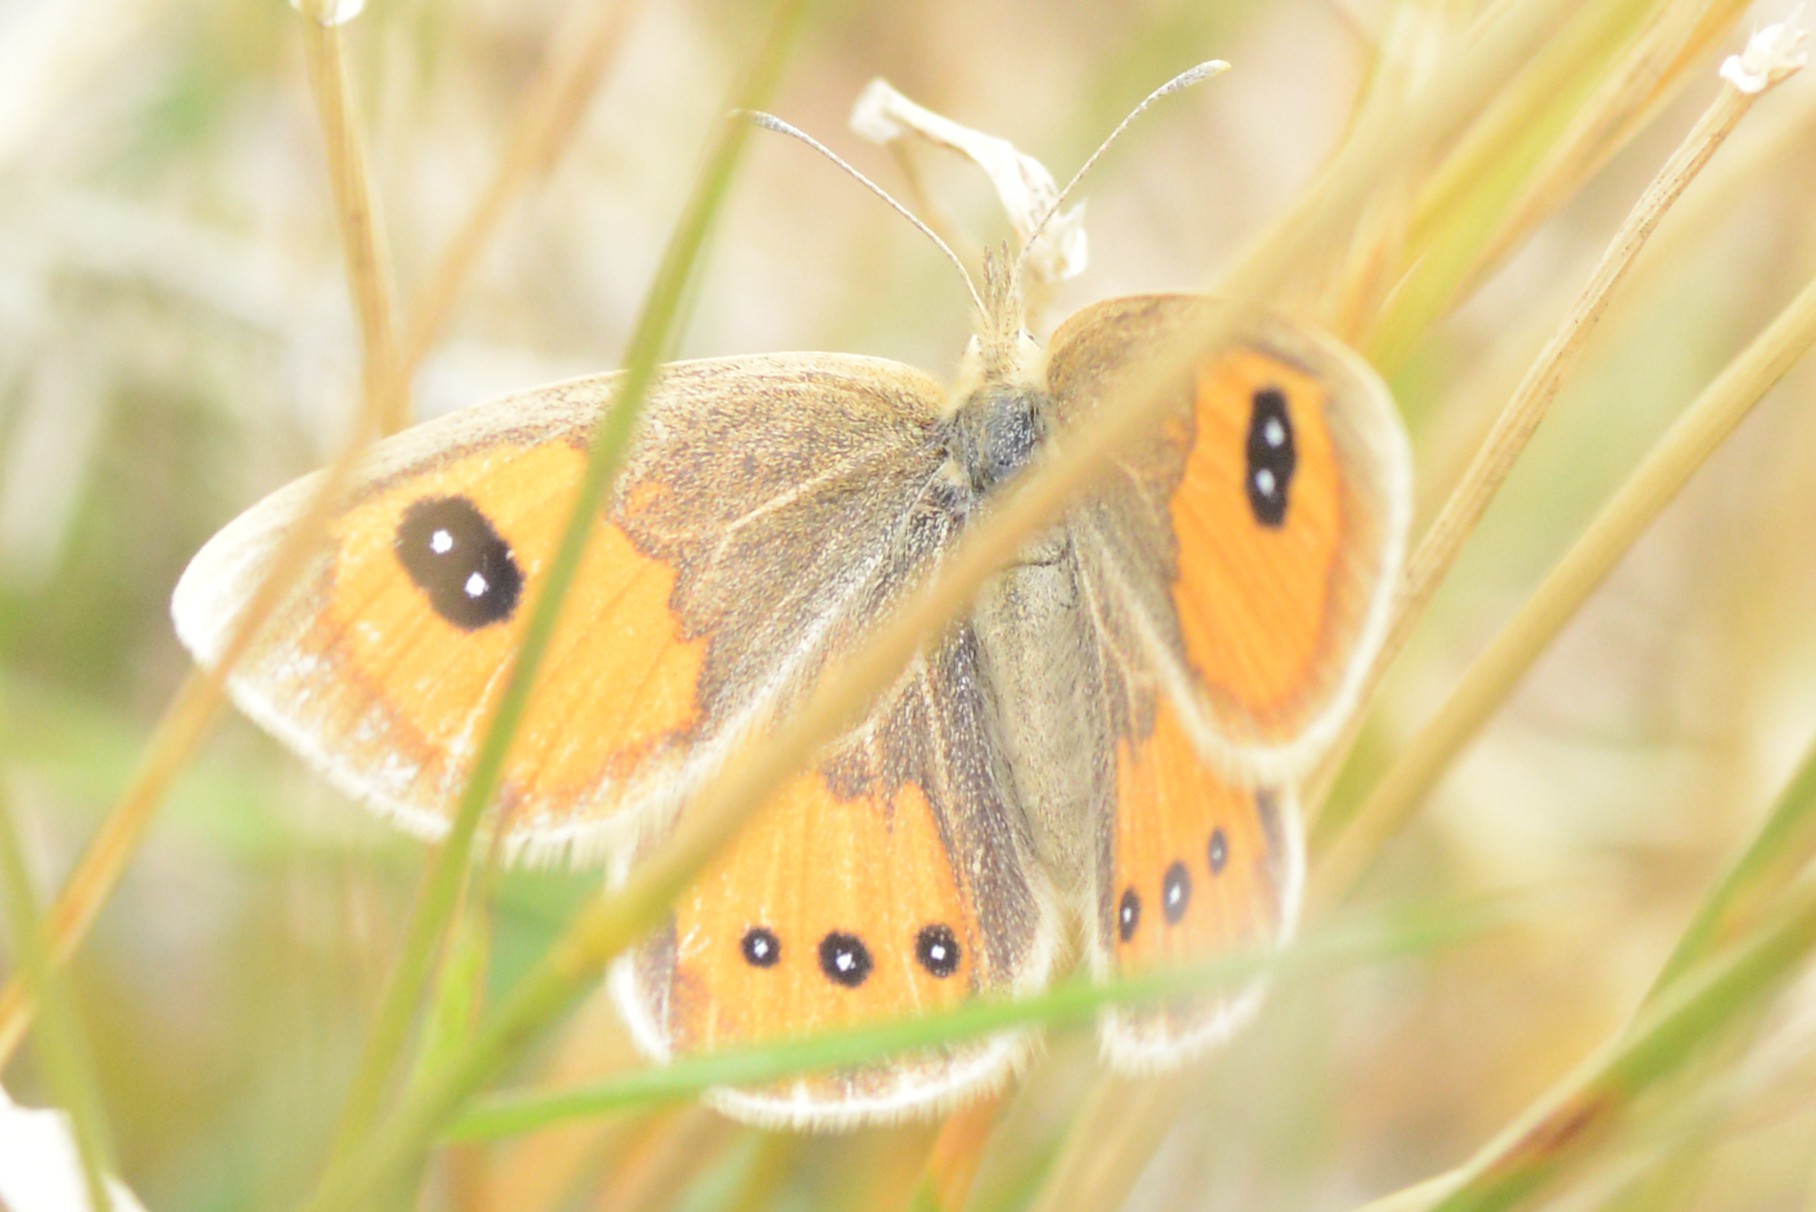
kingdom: Animalia
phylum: Arthropoda
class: Insecta
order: Lepidoptera
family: Nymphalidae
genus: Argyrophenga
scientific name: Argyrophenga antipodum
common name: Common tussock butterfly
